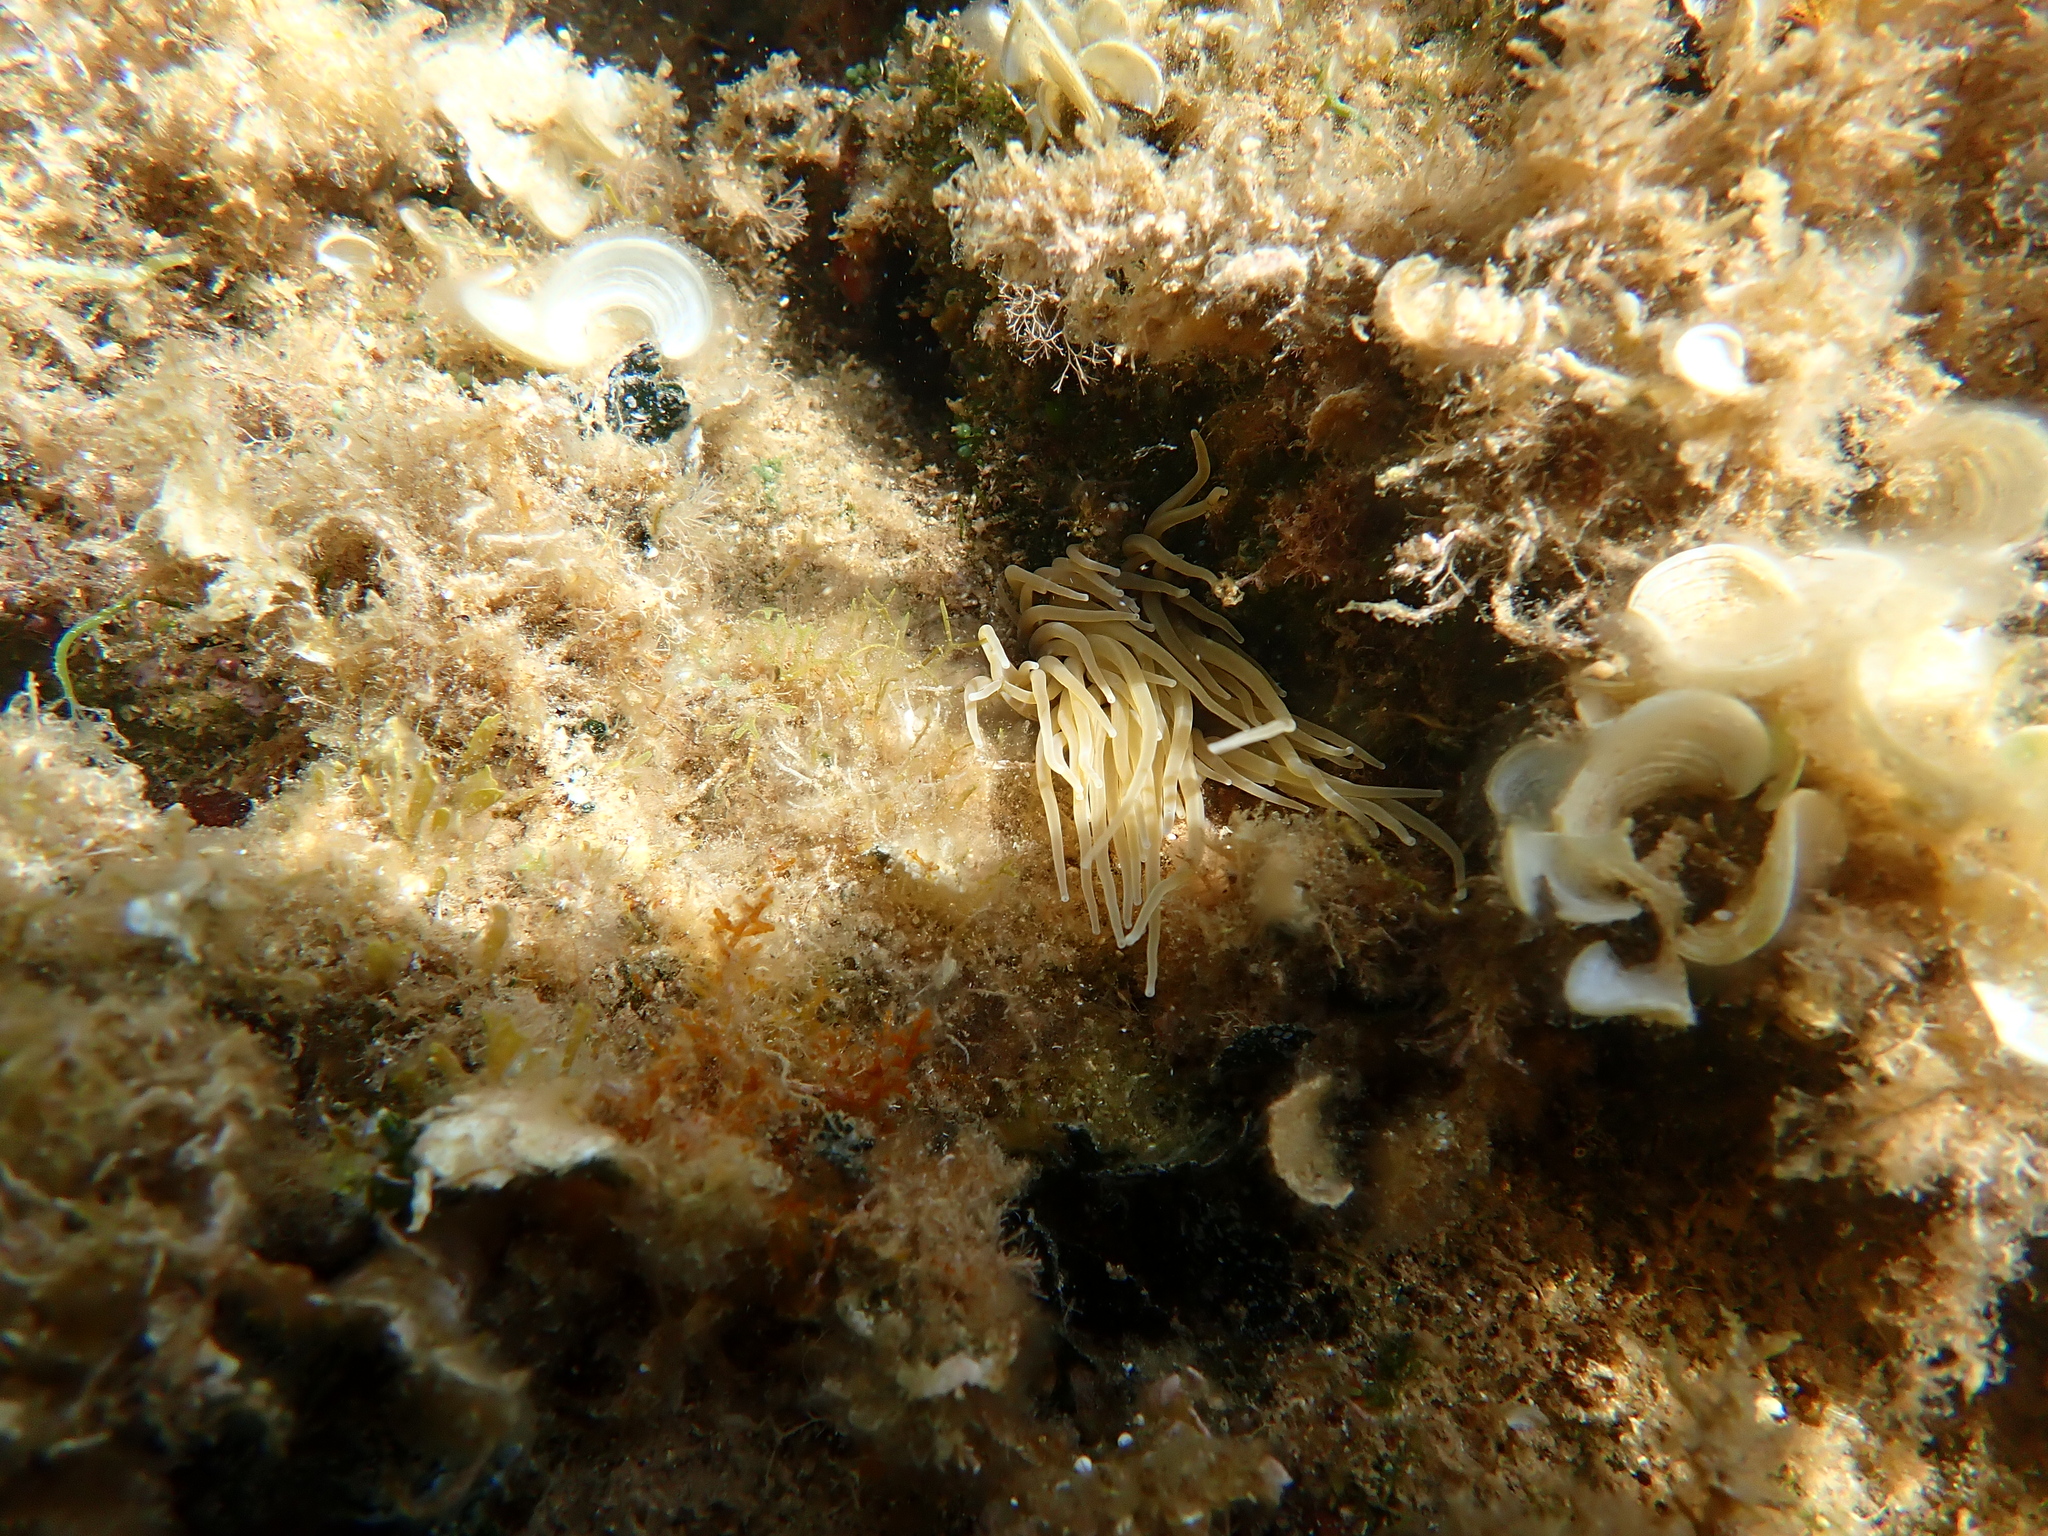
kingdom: Animalia
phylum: Cnidaria
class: Anthozoa
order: Actiniaria
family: Actiniidae
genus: Anemonia
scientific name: Anemonia viridis
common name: Snakelocks anemone
